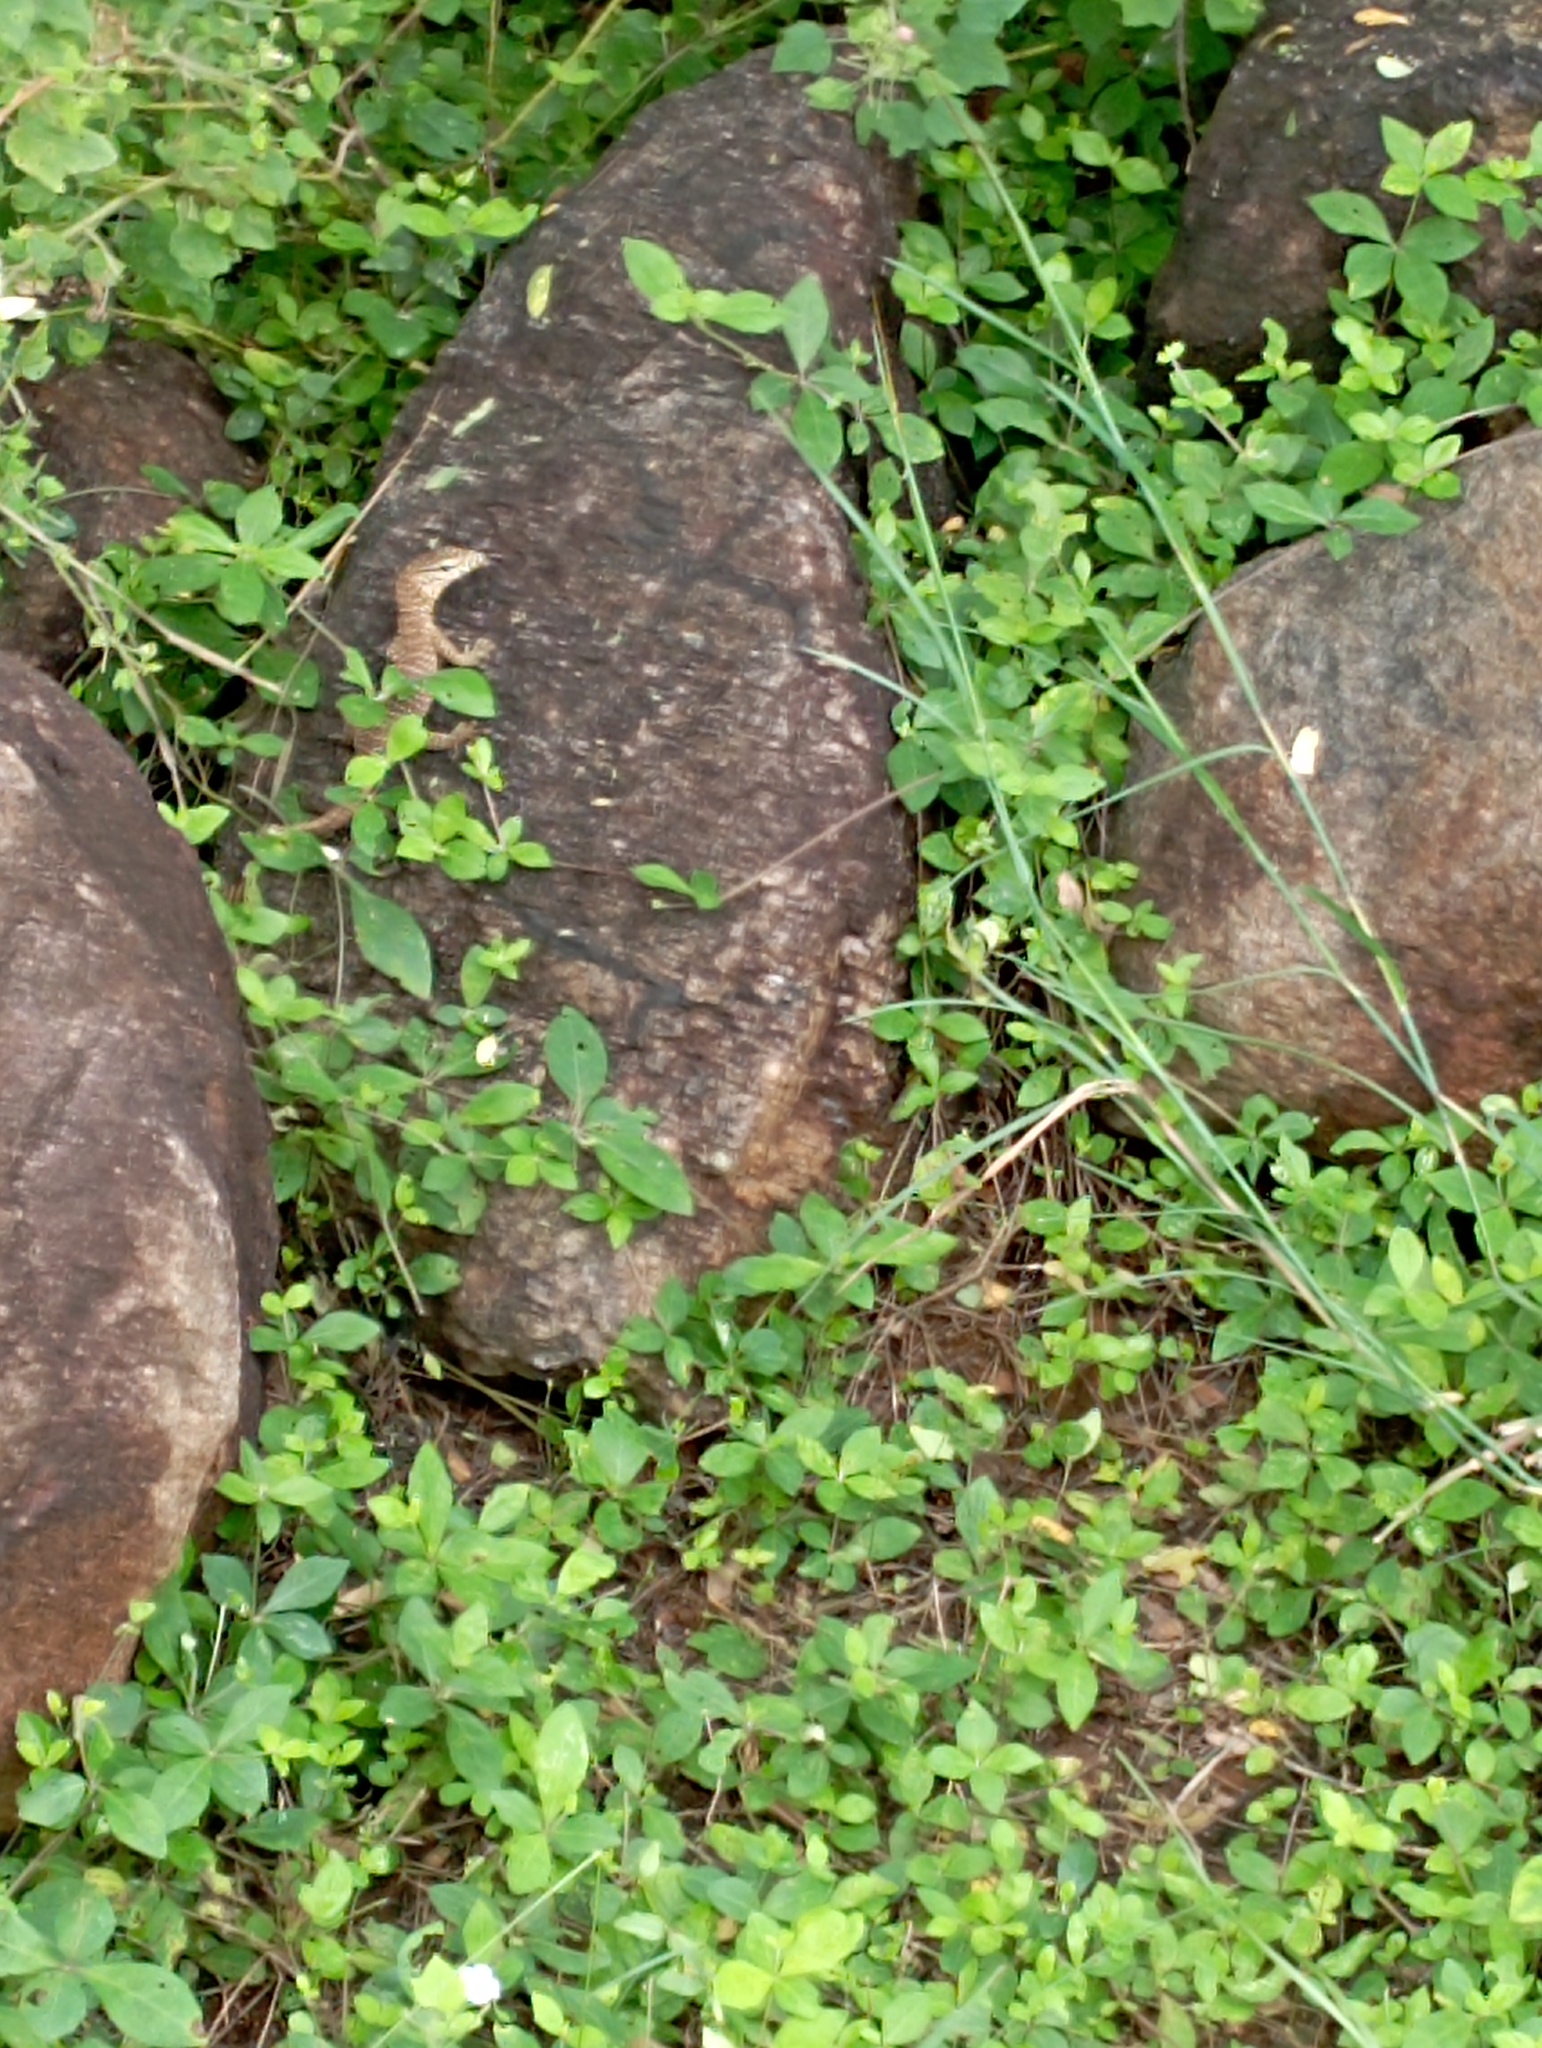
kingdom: Animalia
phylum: Chordata
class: Squamata
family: Varanidae
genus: Varanus
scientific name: Varanus bengalensis
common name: Bengal monitor
